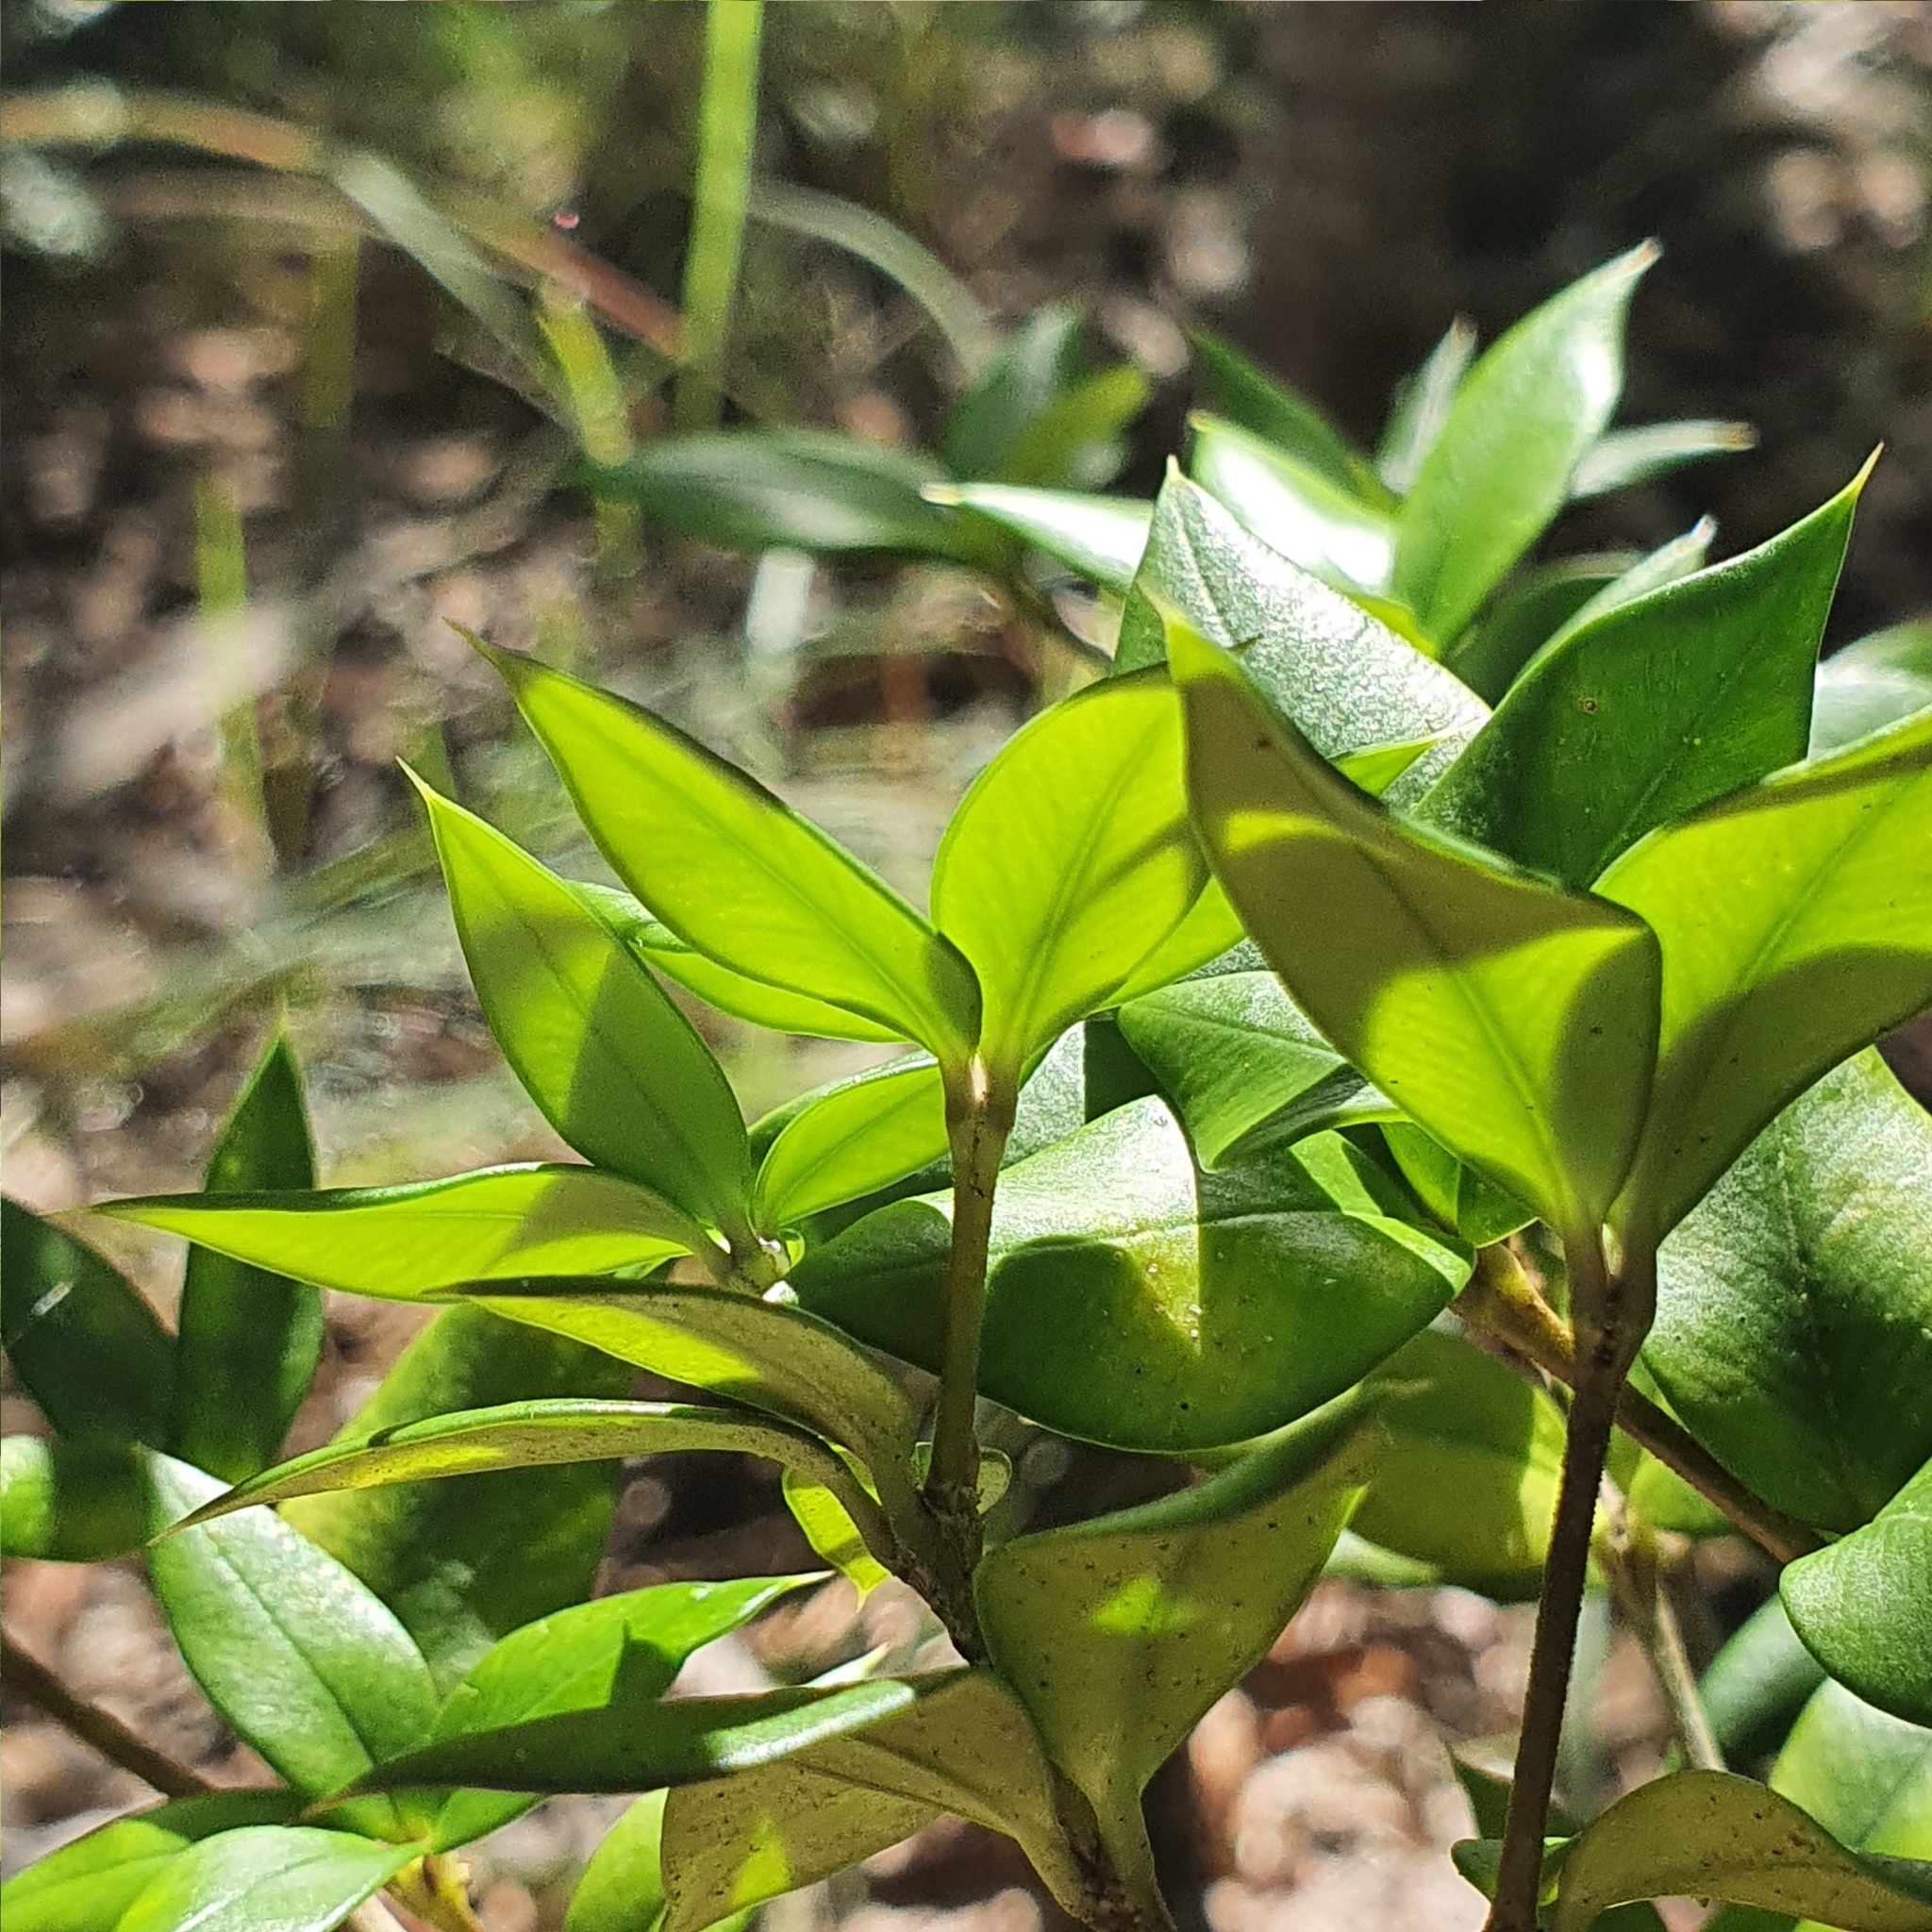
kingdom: Plantae
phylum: Tracheophyta
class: Magnoliopsida
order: Gentianales
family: Apocynaceae
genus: Alyxia
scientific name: Alyxia ruscifolia
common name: Chainfruit
